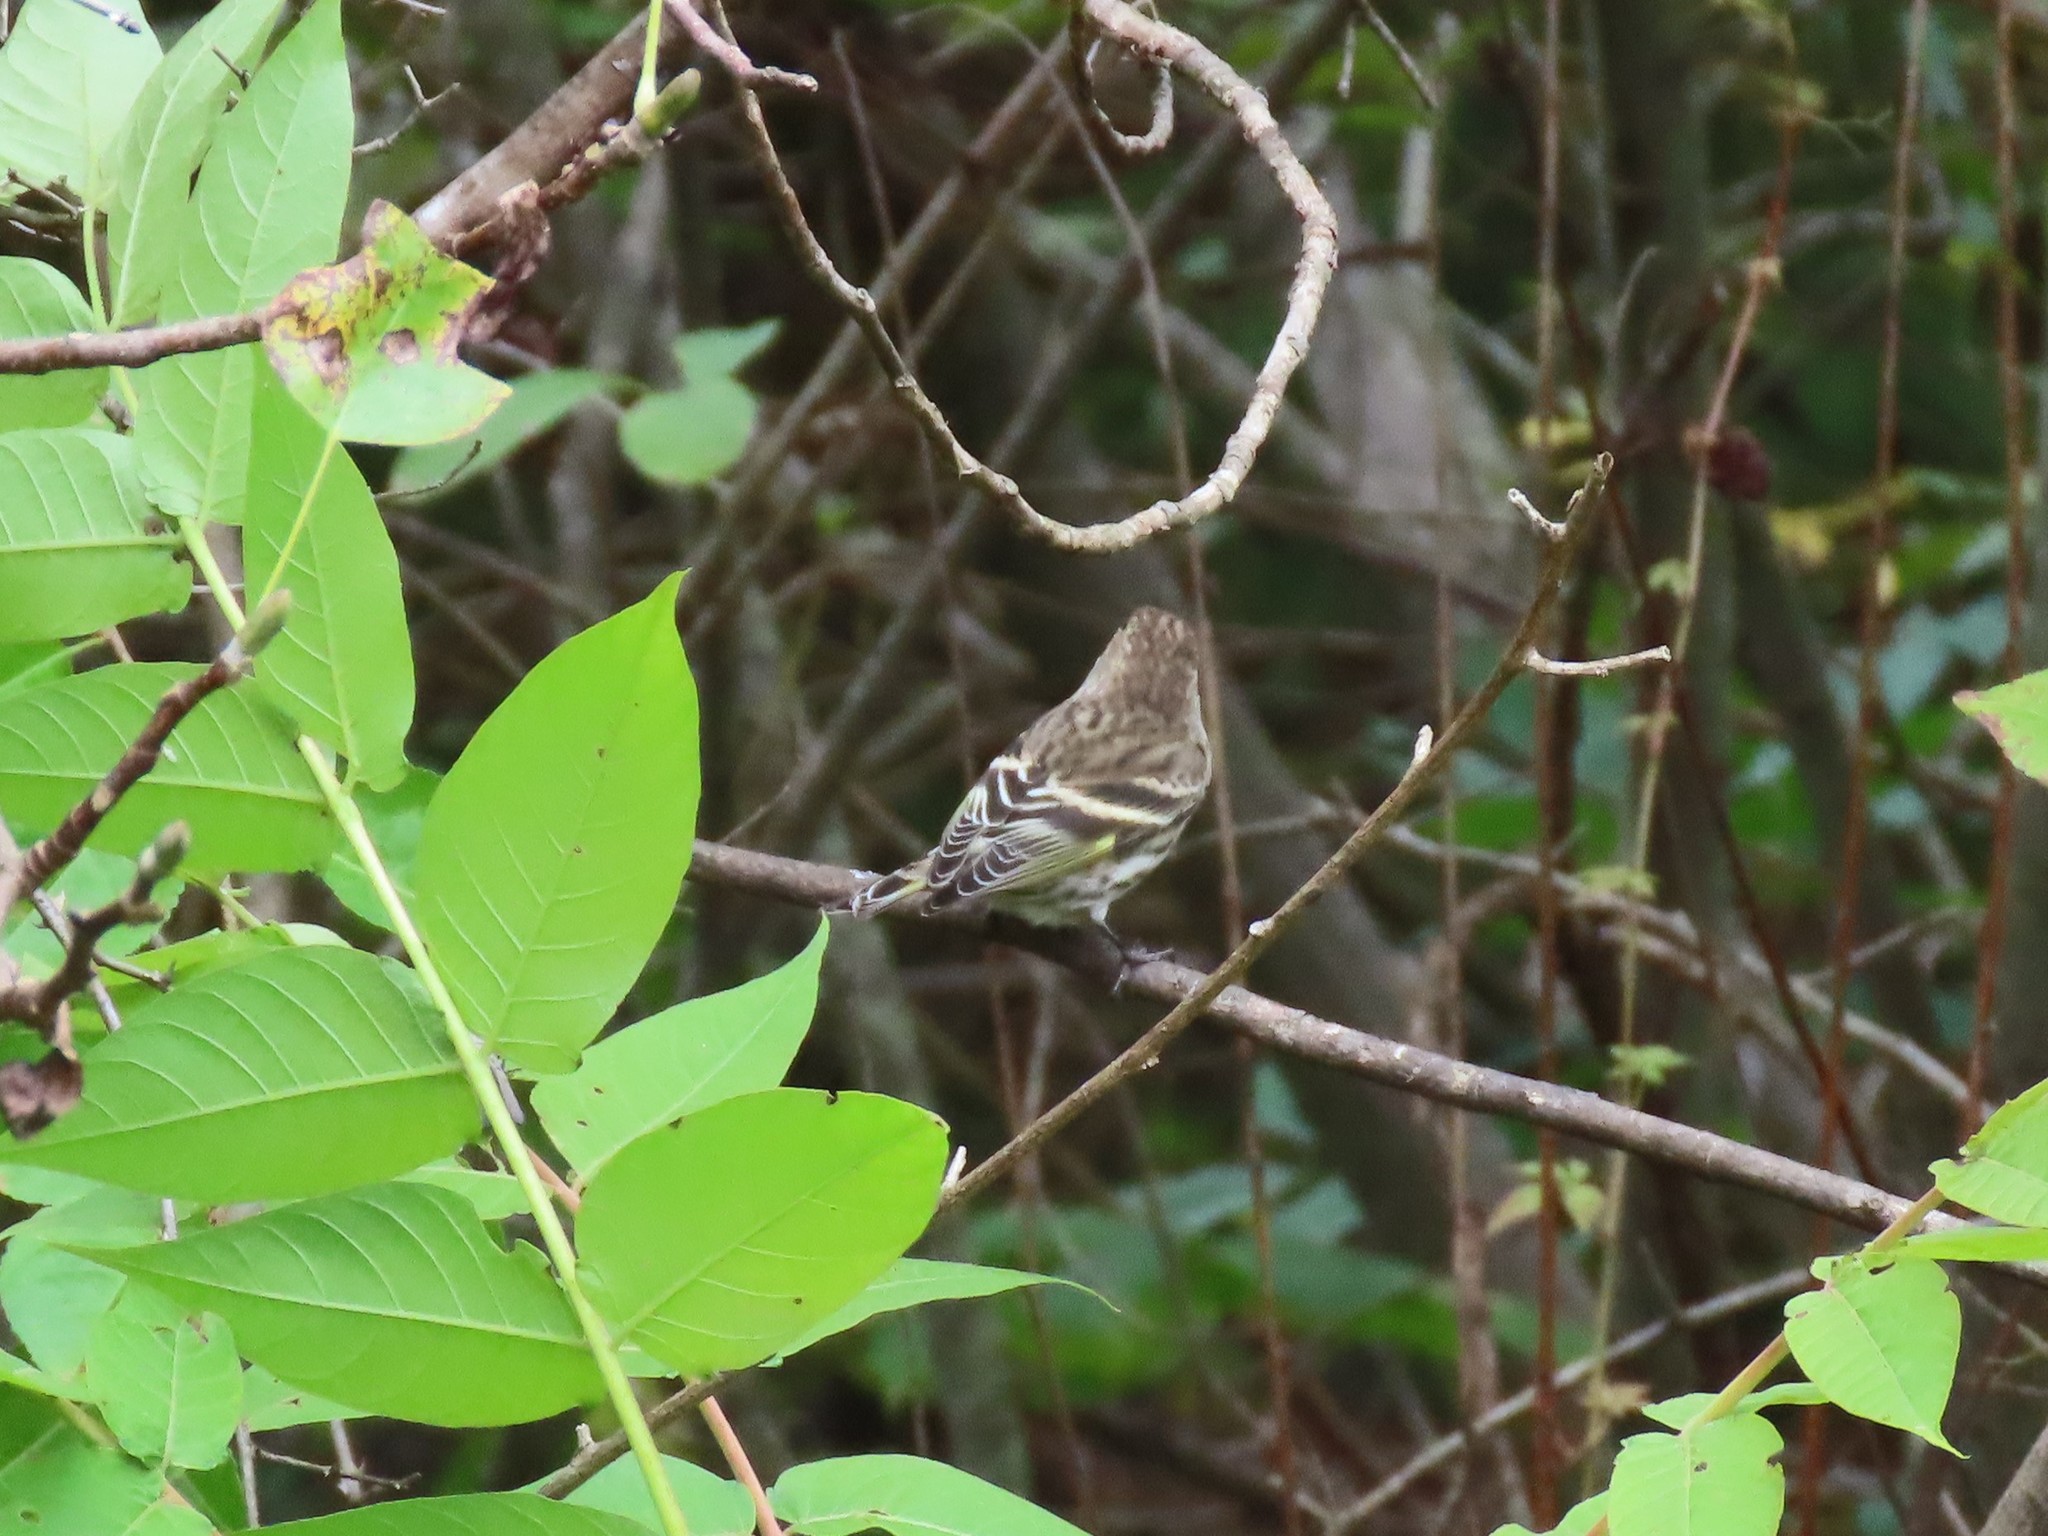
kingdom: Animalia
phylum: Chordata
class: Aves
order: Passeriformes
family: Fringillidae
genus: Spinus
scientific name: Spinus pinus
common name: Pine siskin
